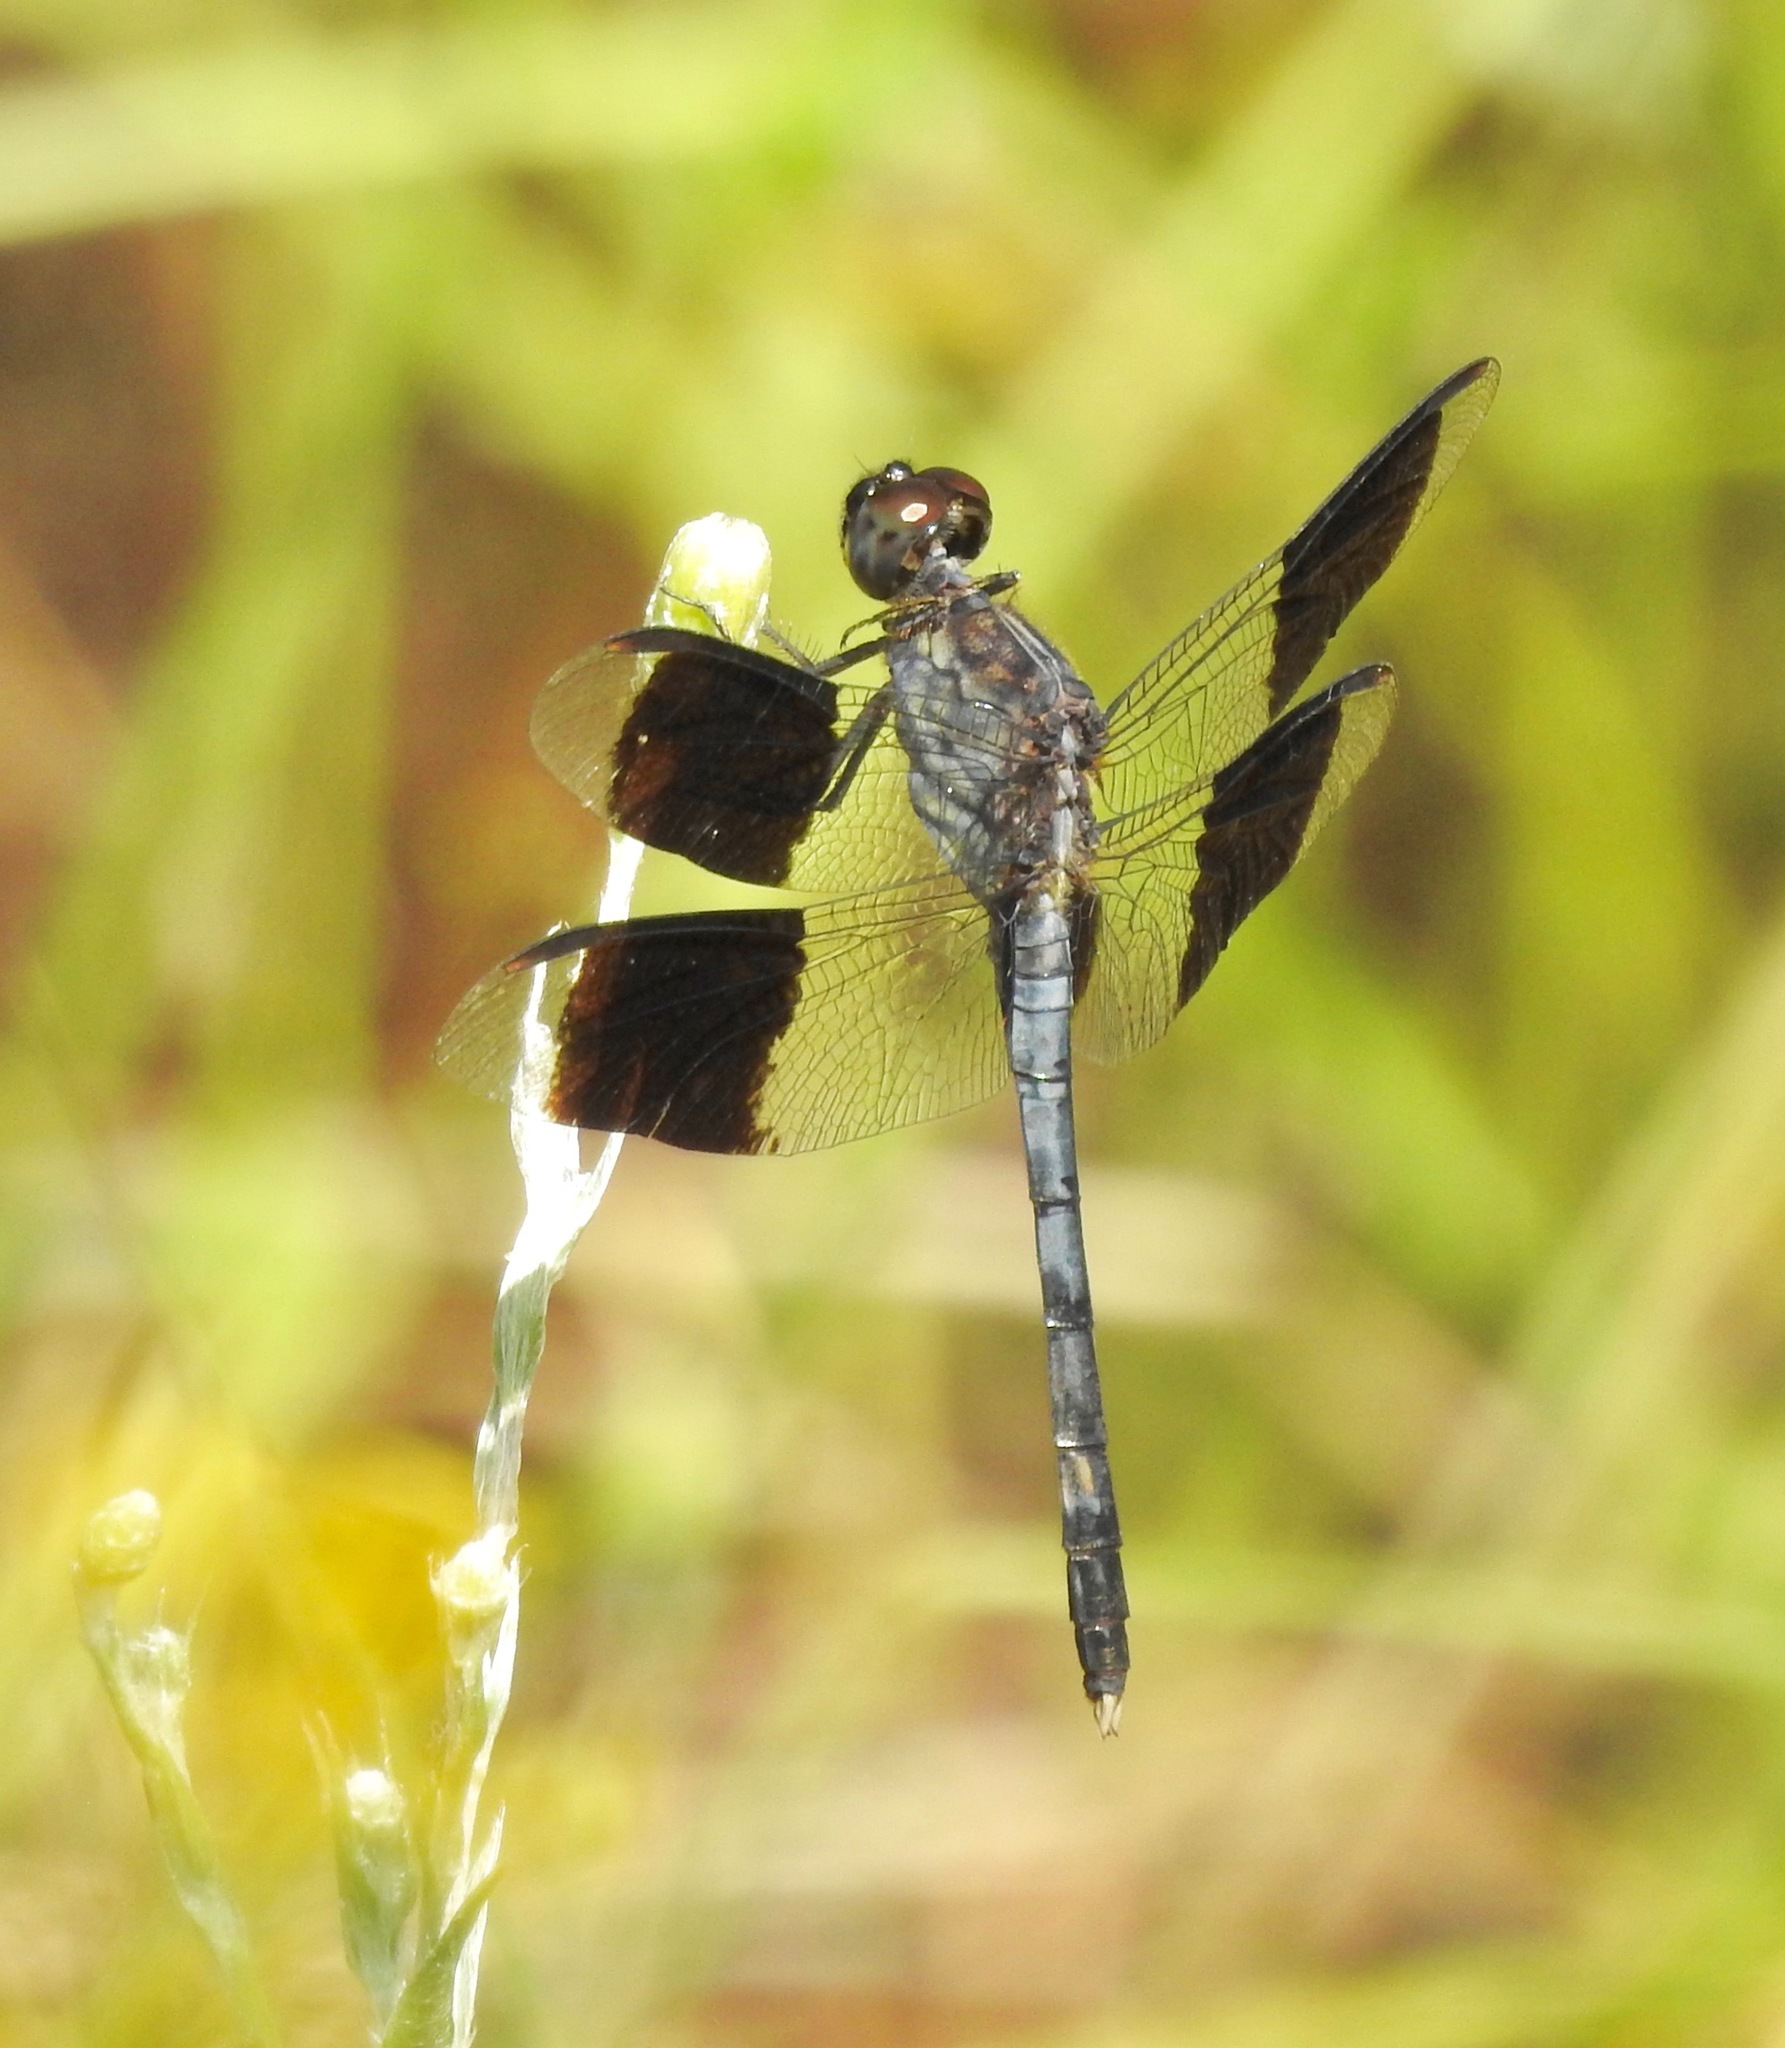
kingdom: Animalia
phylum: Arthropoda
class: Insecta
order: Odonata
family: Libellulidae
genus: Erythrodiplax
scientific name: Erythrodiplax umbrata
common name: Band-winged dragonlet
